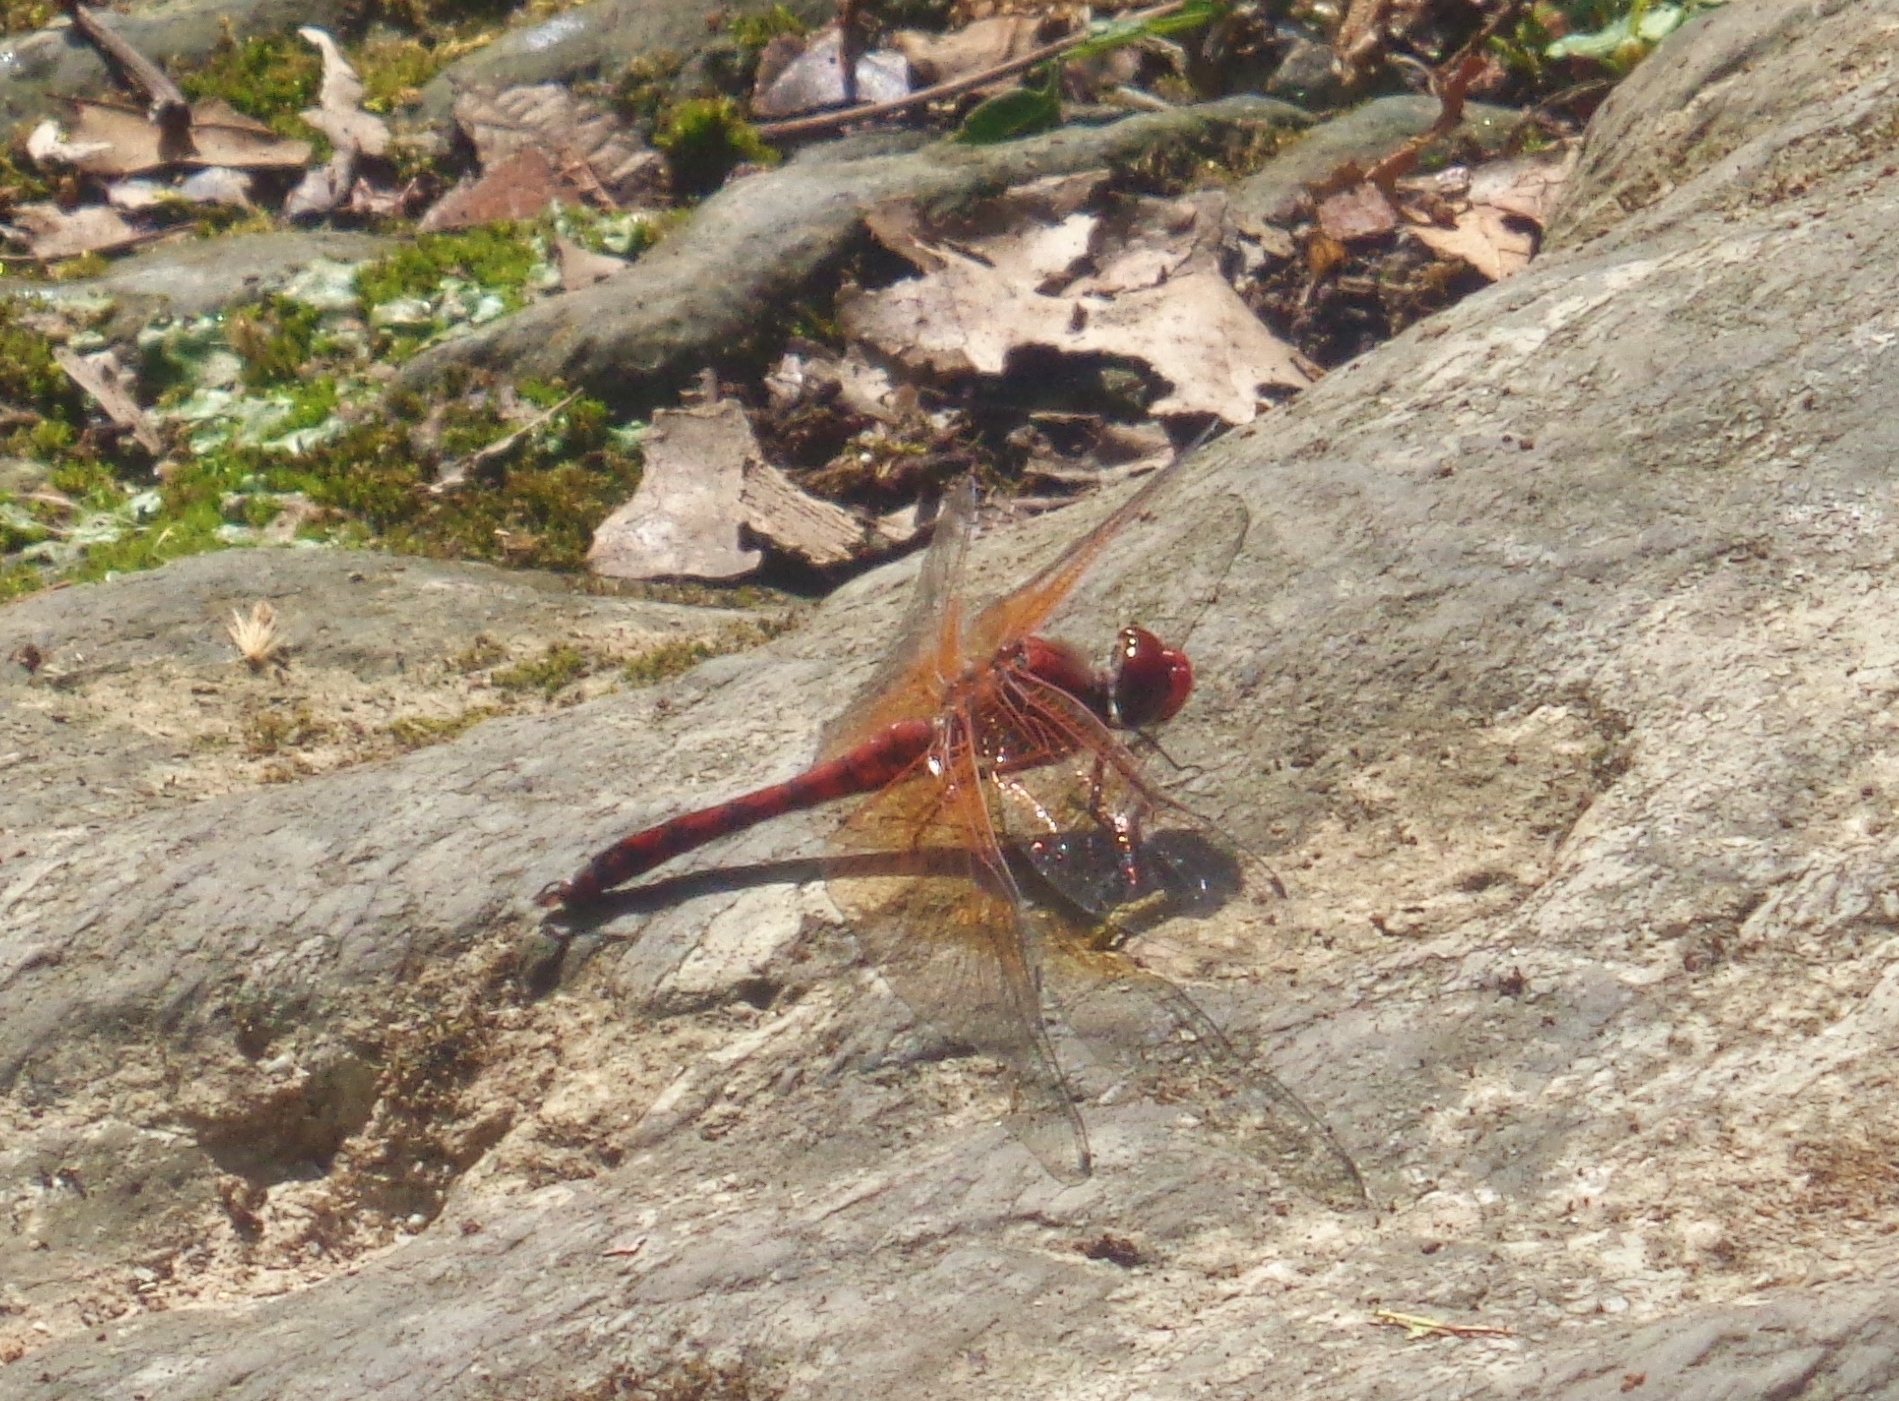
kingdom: Animalia
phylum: Arthropoda
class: Insecta
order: Odonata
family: Libellulidae
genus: Paltothemis
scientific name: Paltothemis lineatipes
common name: Red rock skimmer
